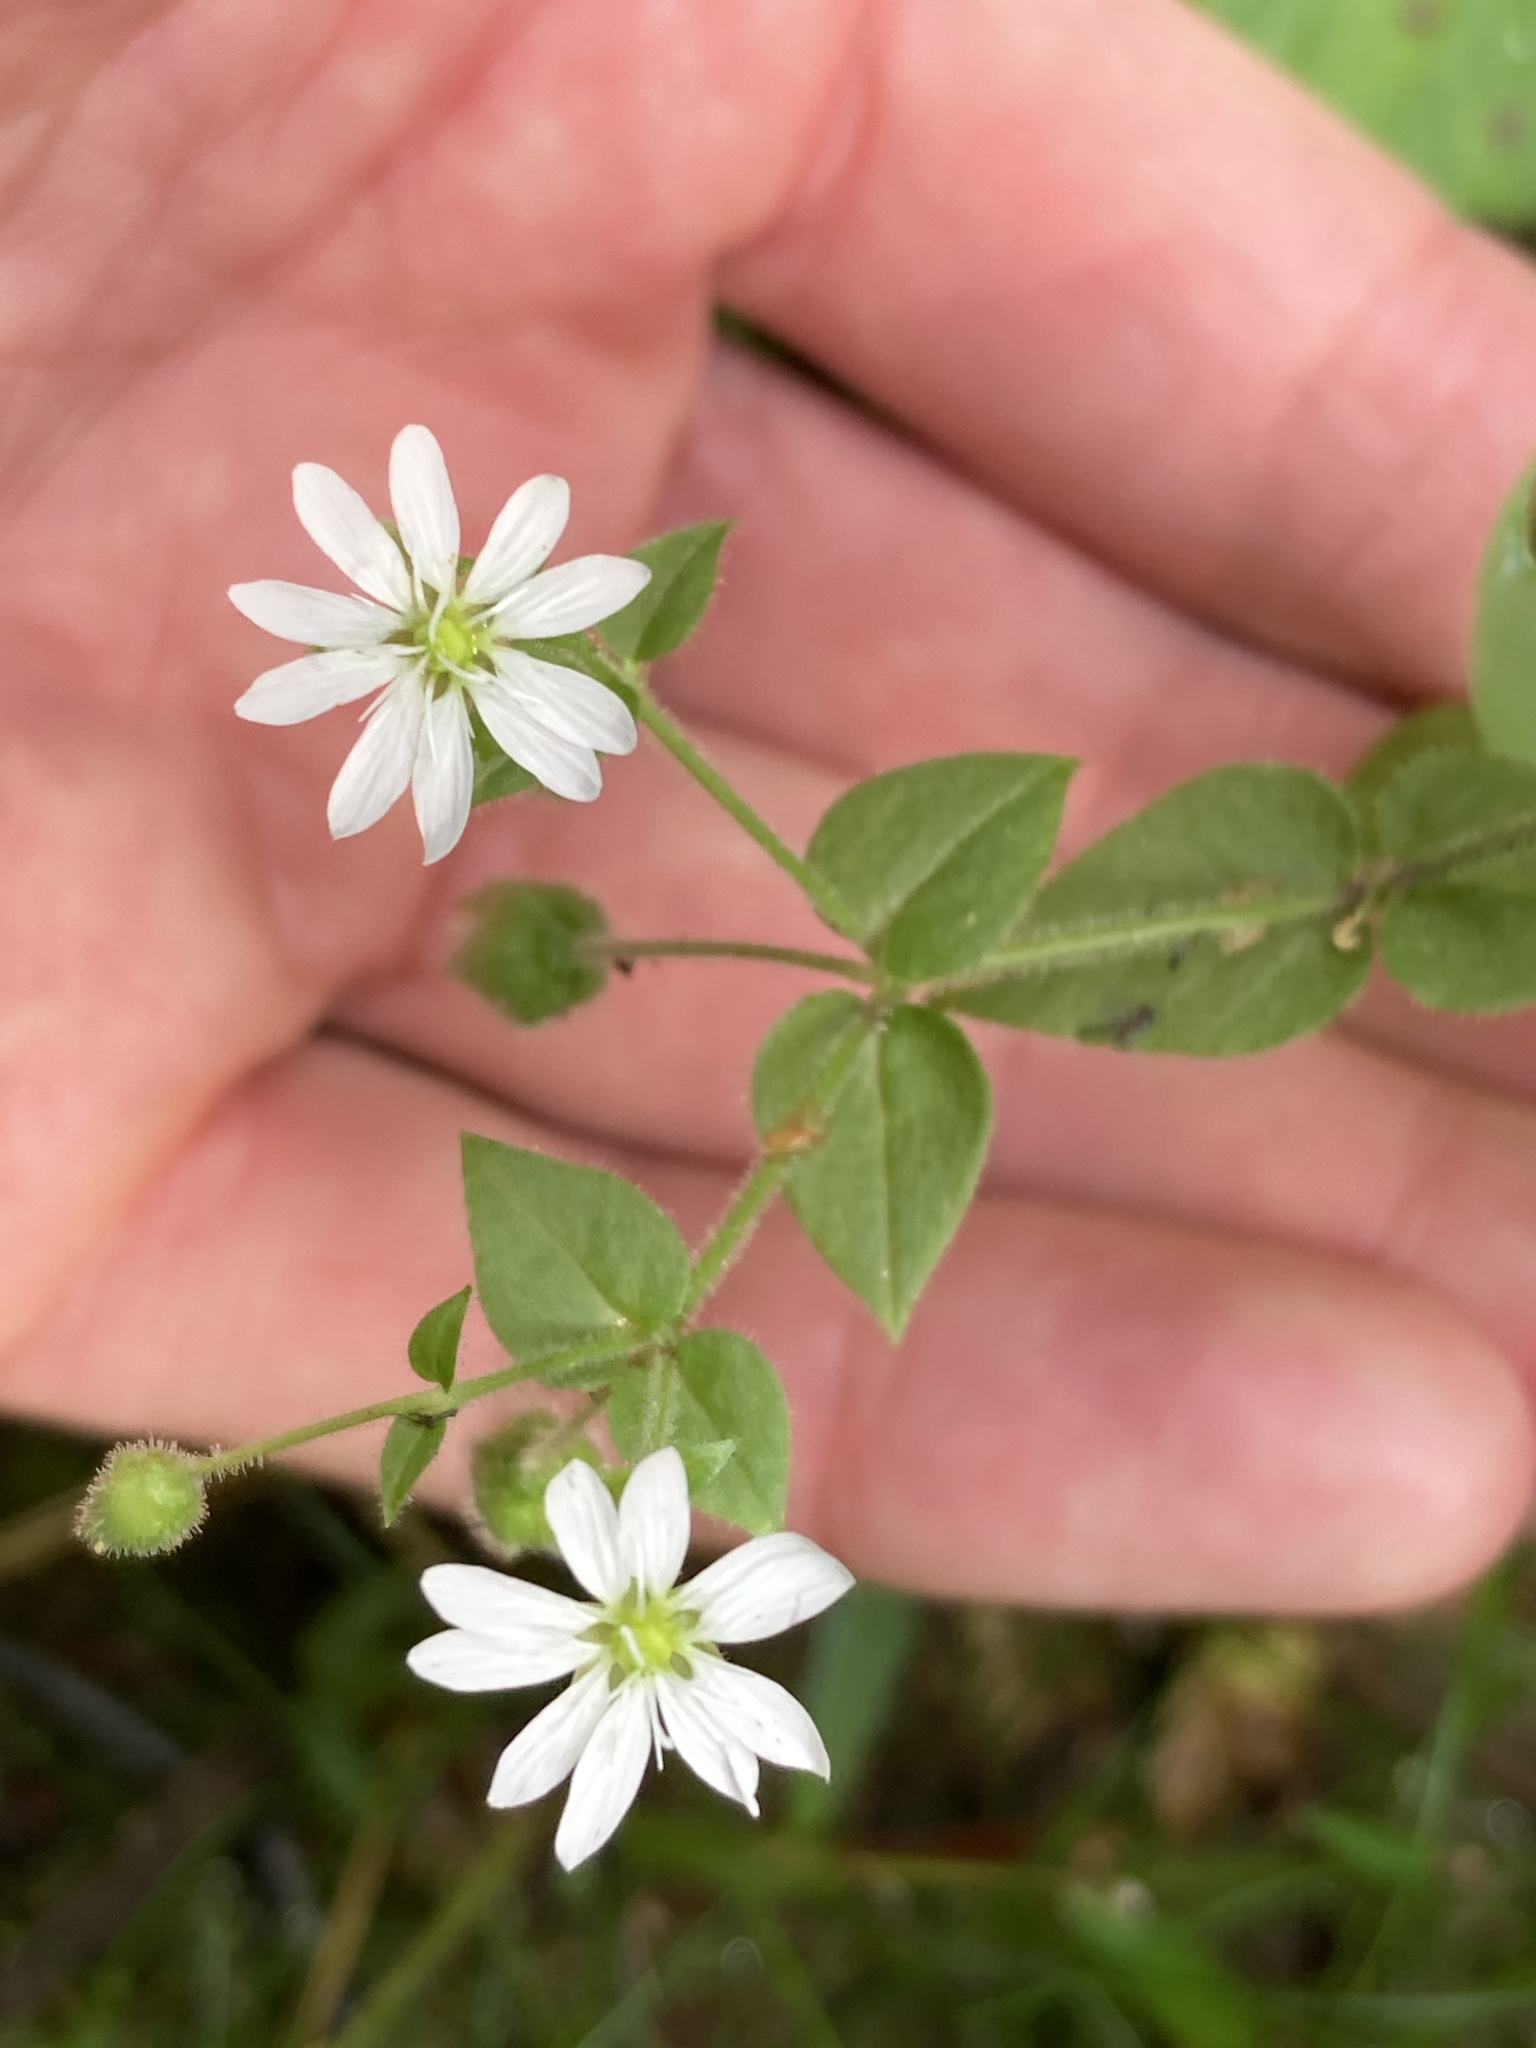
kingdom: Plantae
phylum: Tracheophyta
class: Magnoliopsida
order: Caryophyllales
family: Caryophyllaceae
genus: Stellaria
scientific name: Stellaria aquatica
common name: Water chickweed
